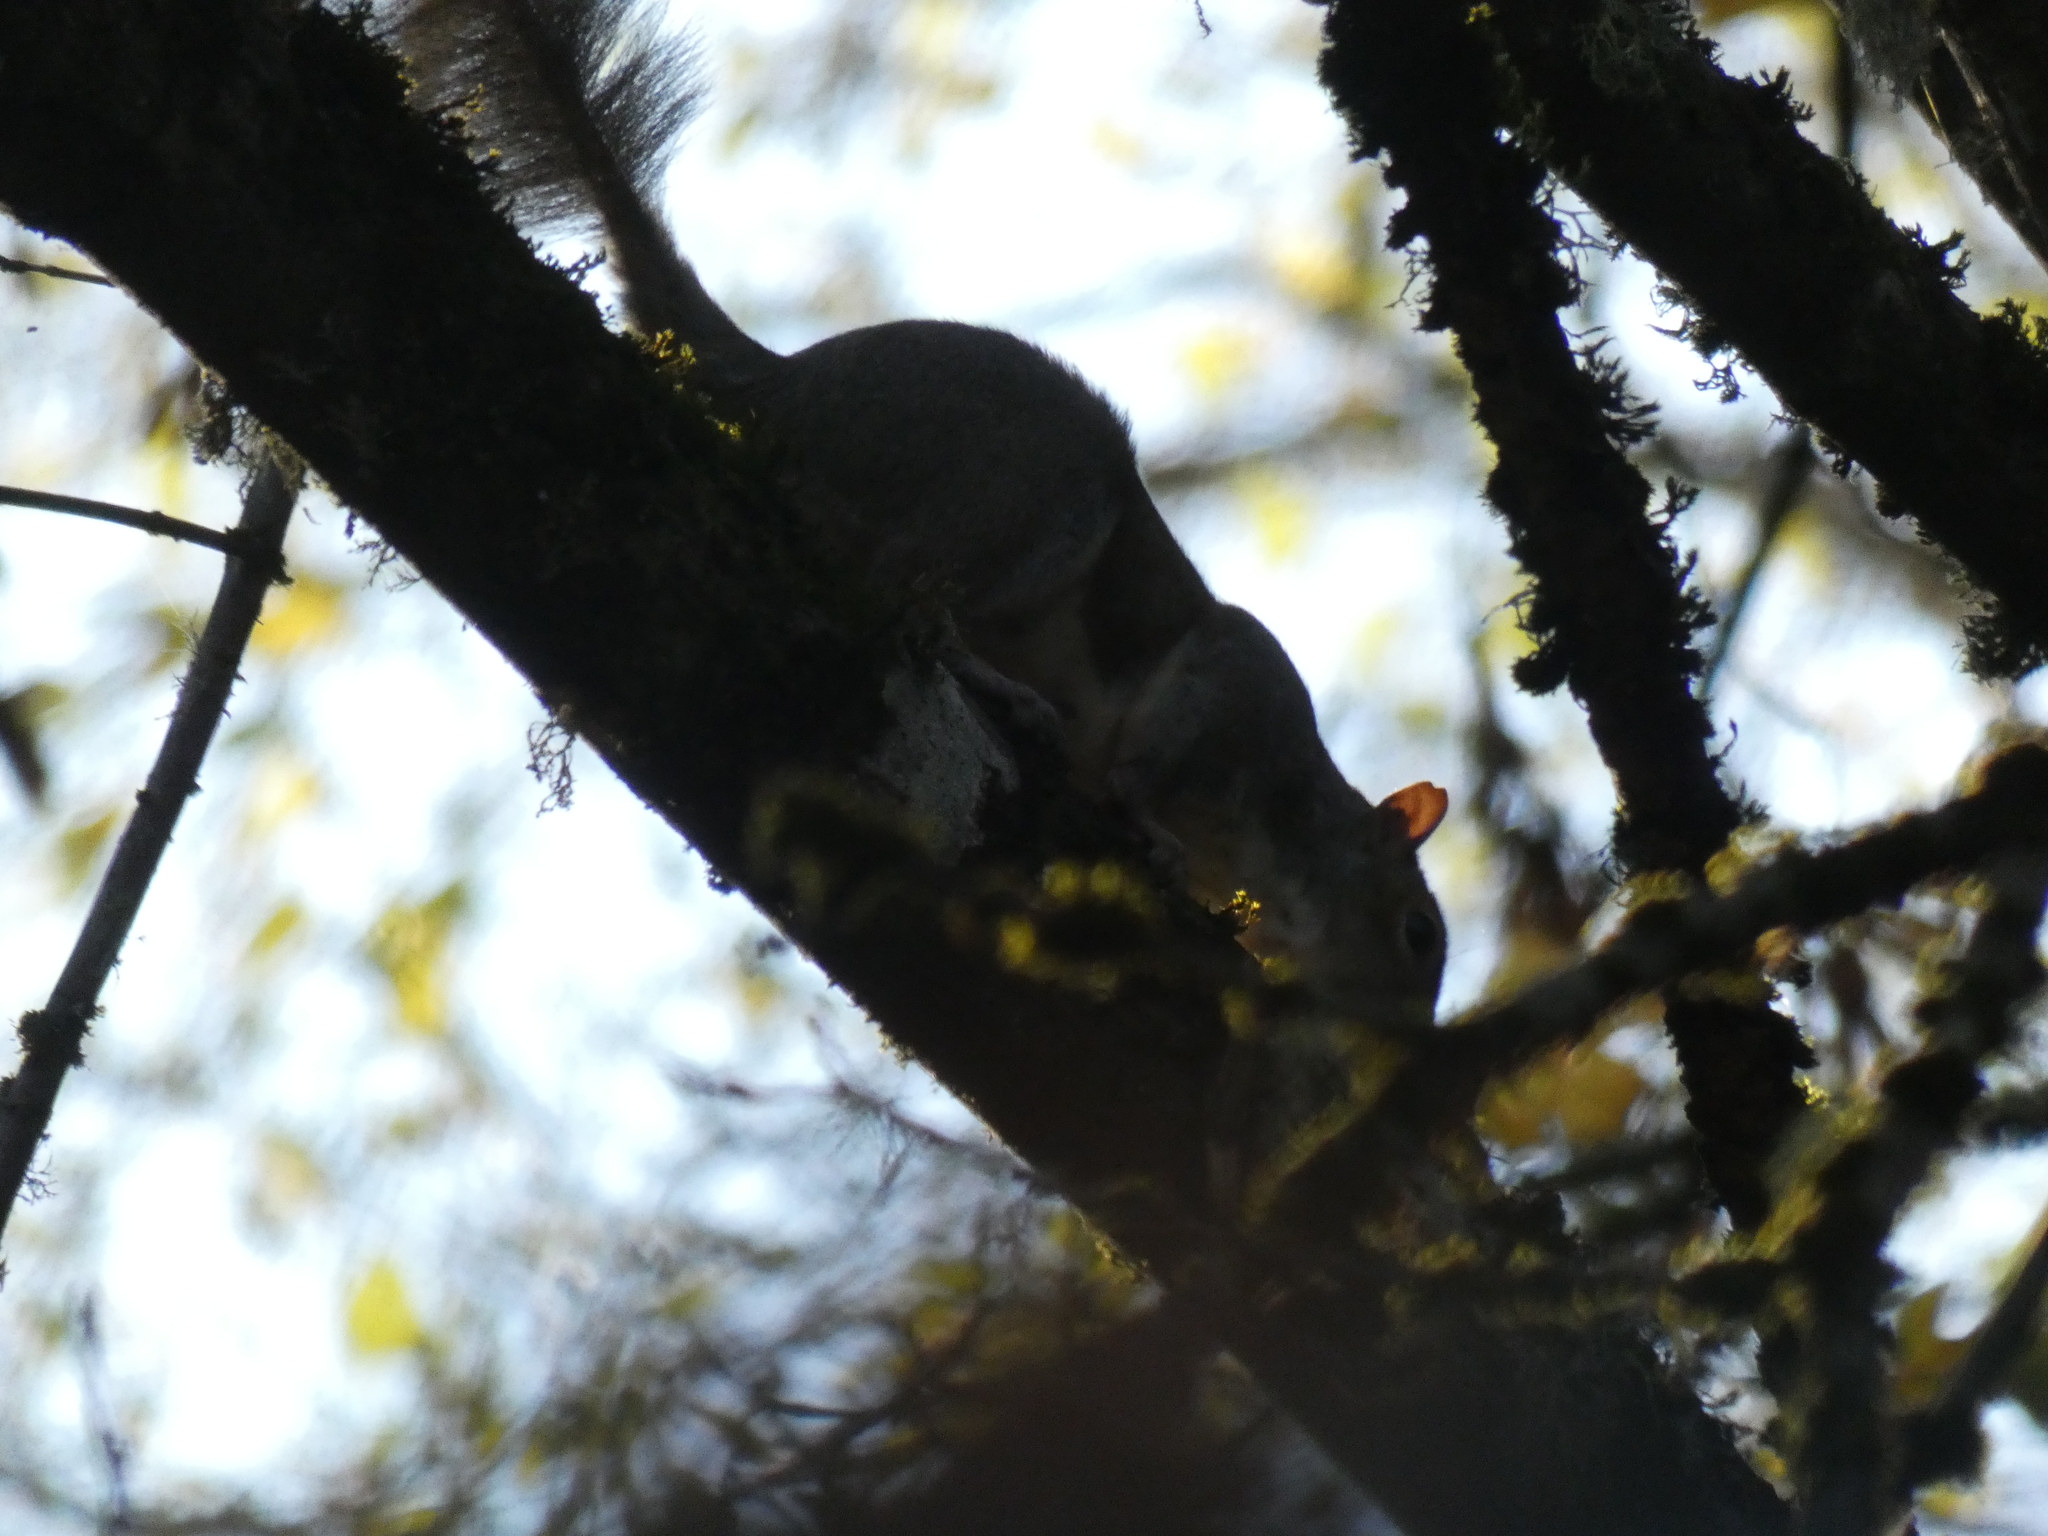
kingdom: Animalia
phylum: Chordata
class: Mammalia
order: Rodentia
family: Sciuridae
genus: Sciurus
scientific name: Sciurus carolinensis
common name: Eastern gray squirrel
